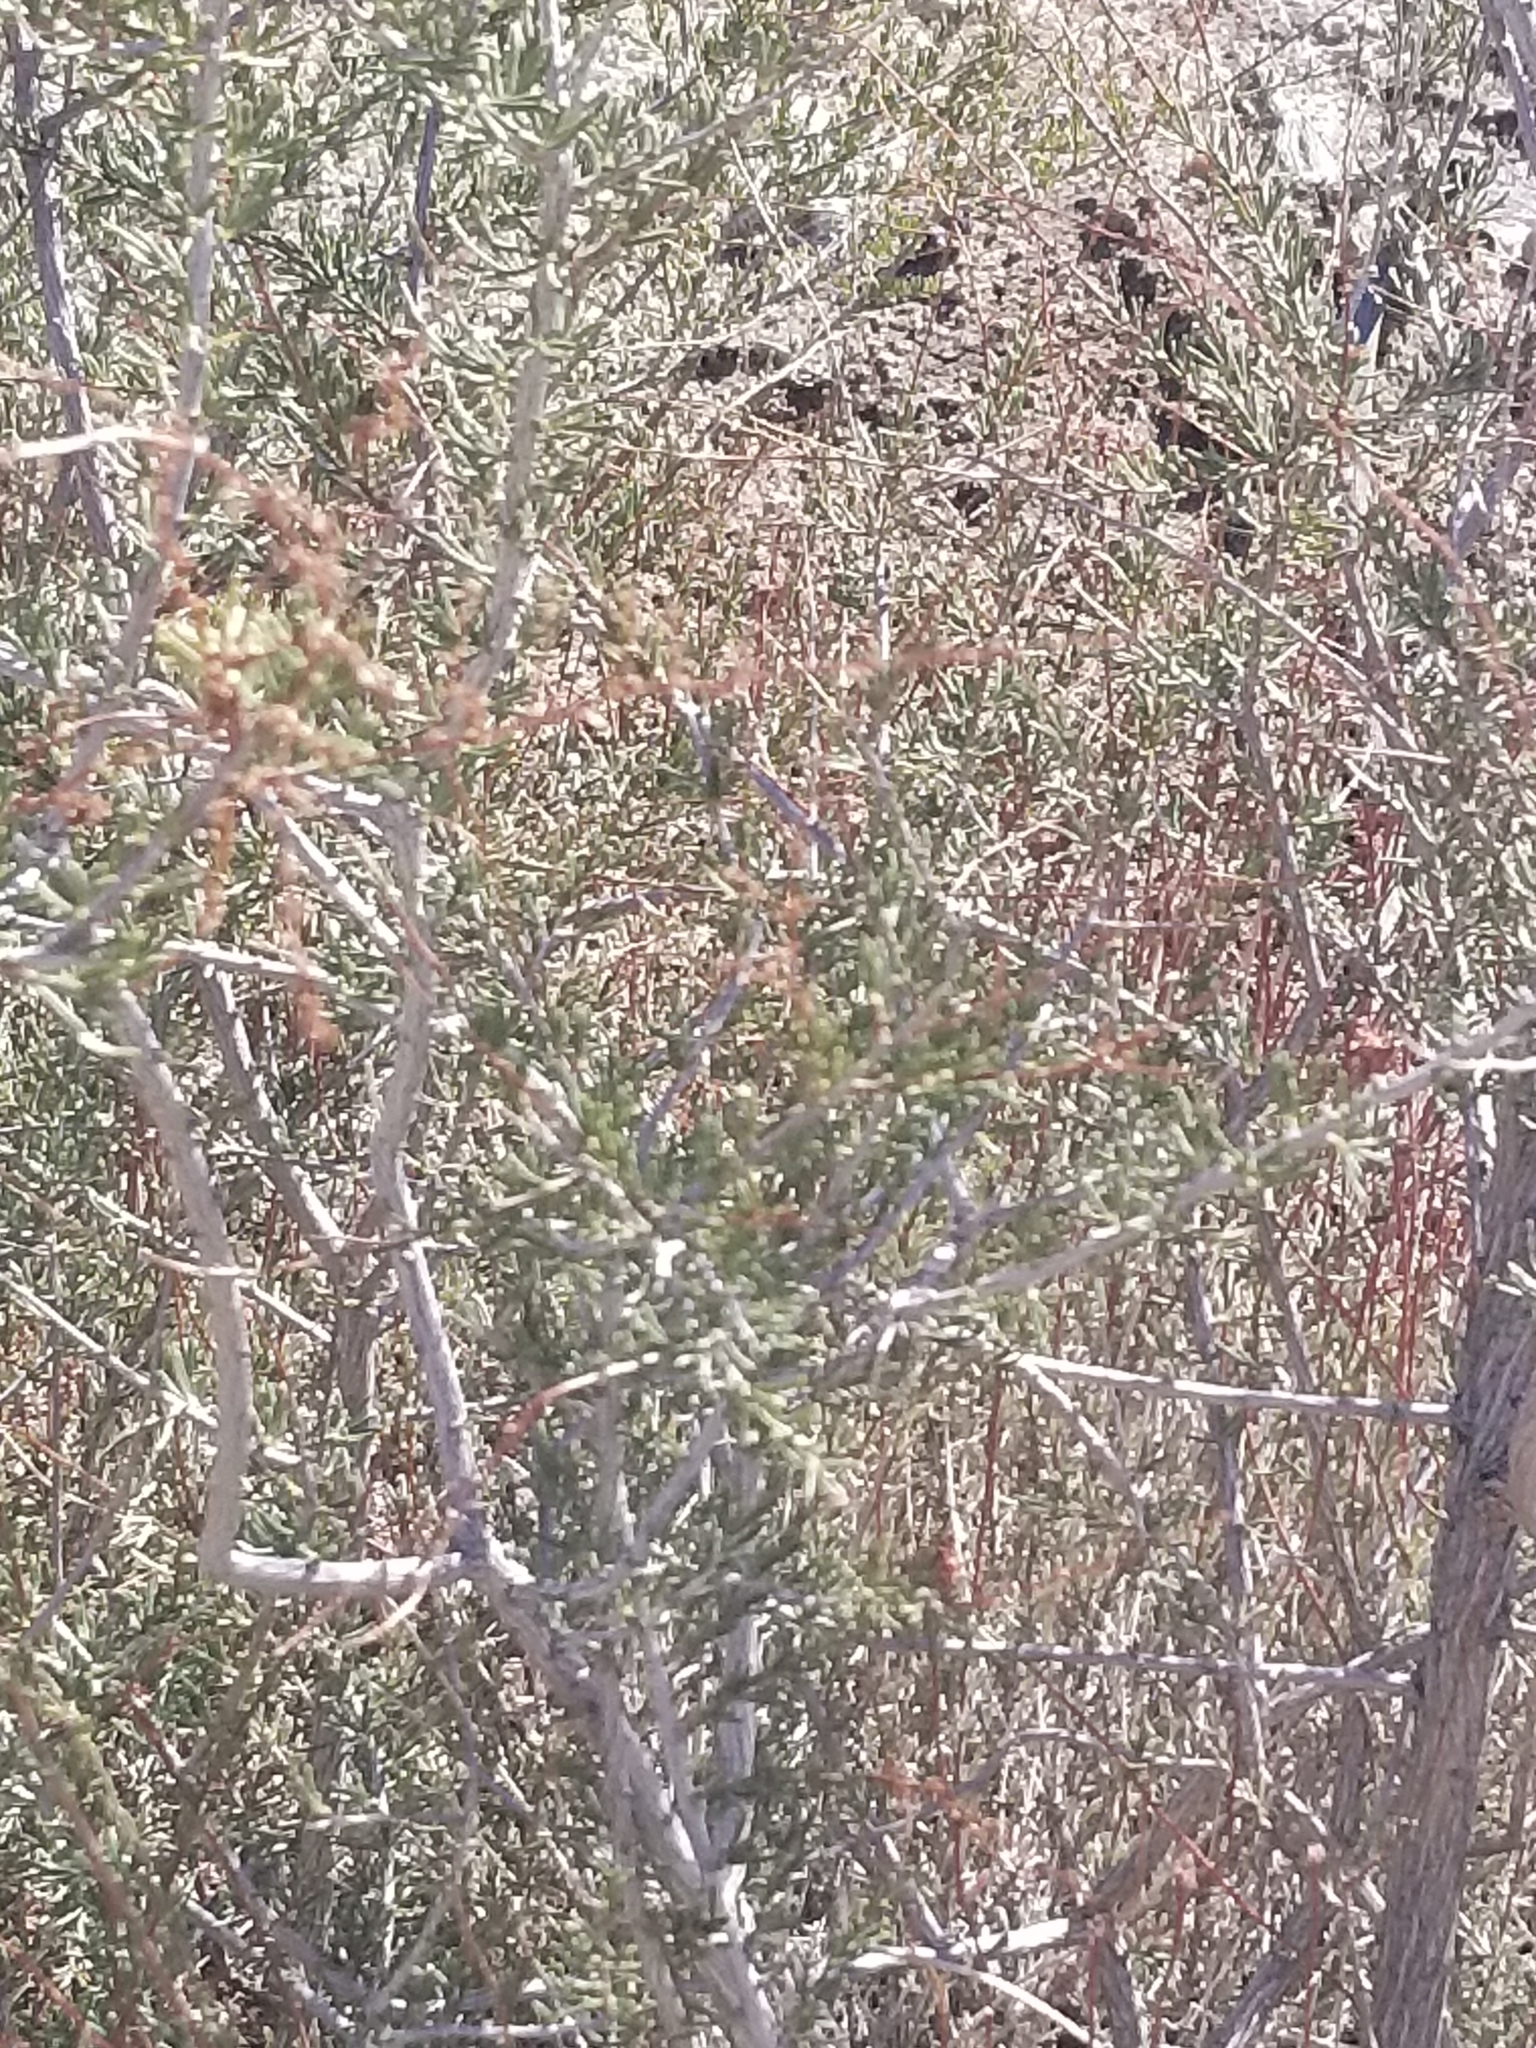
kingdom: Plantae
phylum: Tracheophyta
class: Magnoliopsida
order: Rosales
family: Rosaceae
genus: Adenostoma
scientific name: Adenostoma fasciculatum
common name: Chamise
